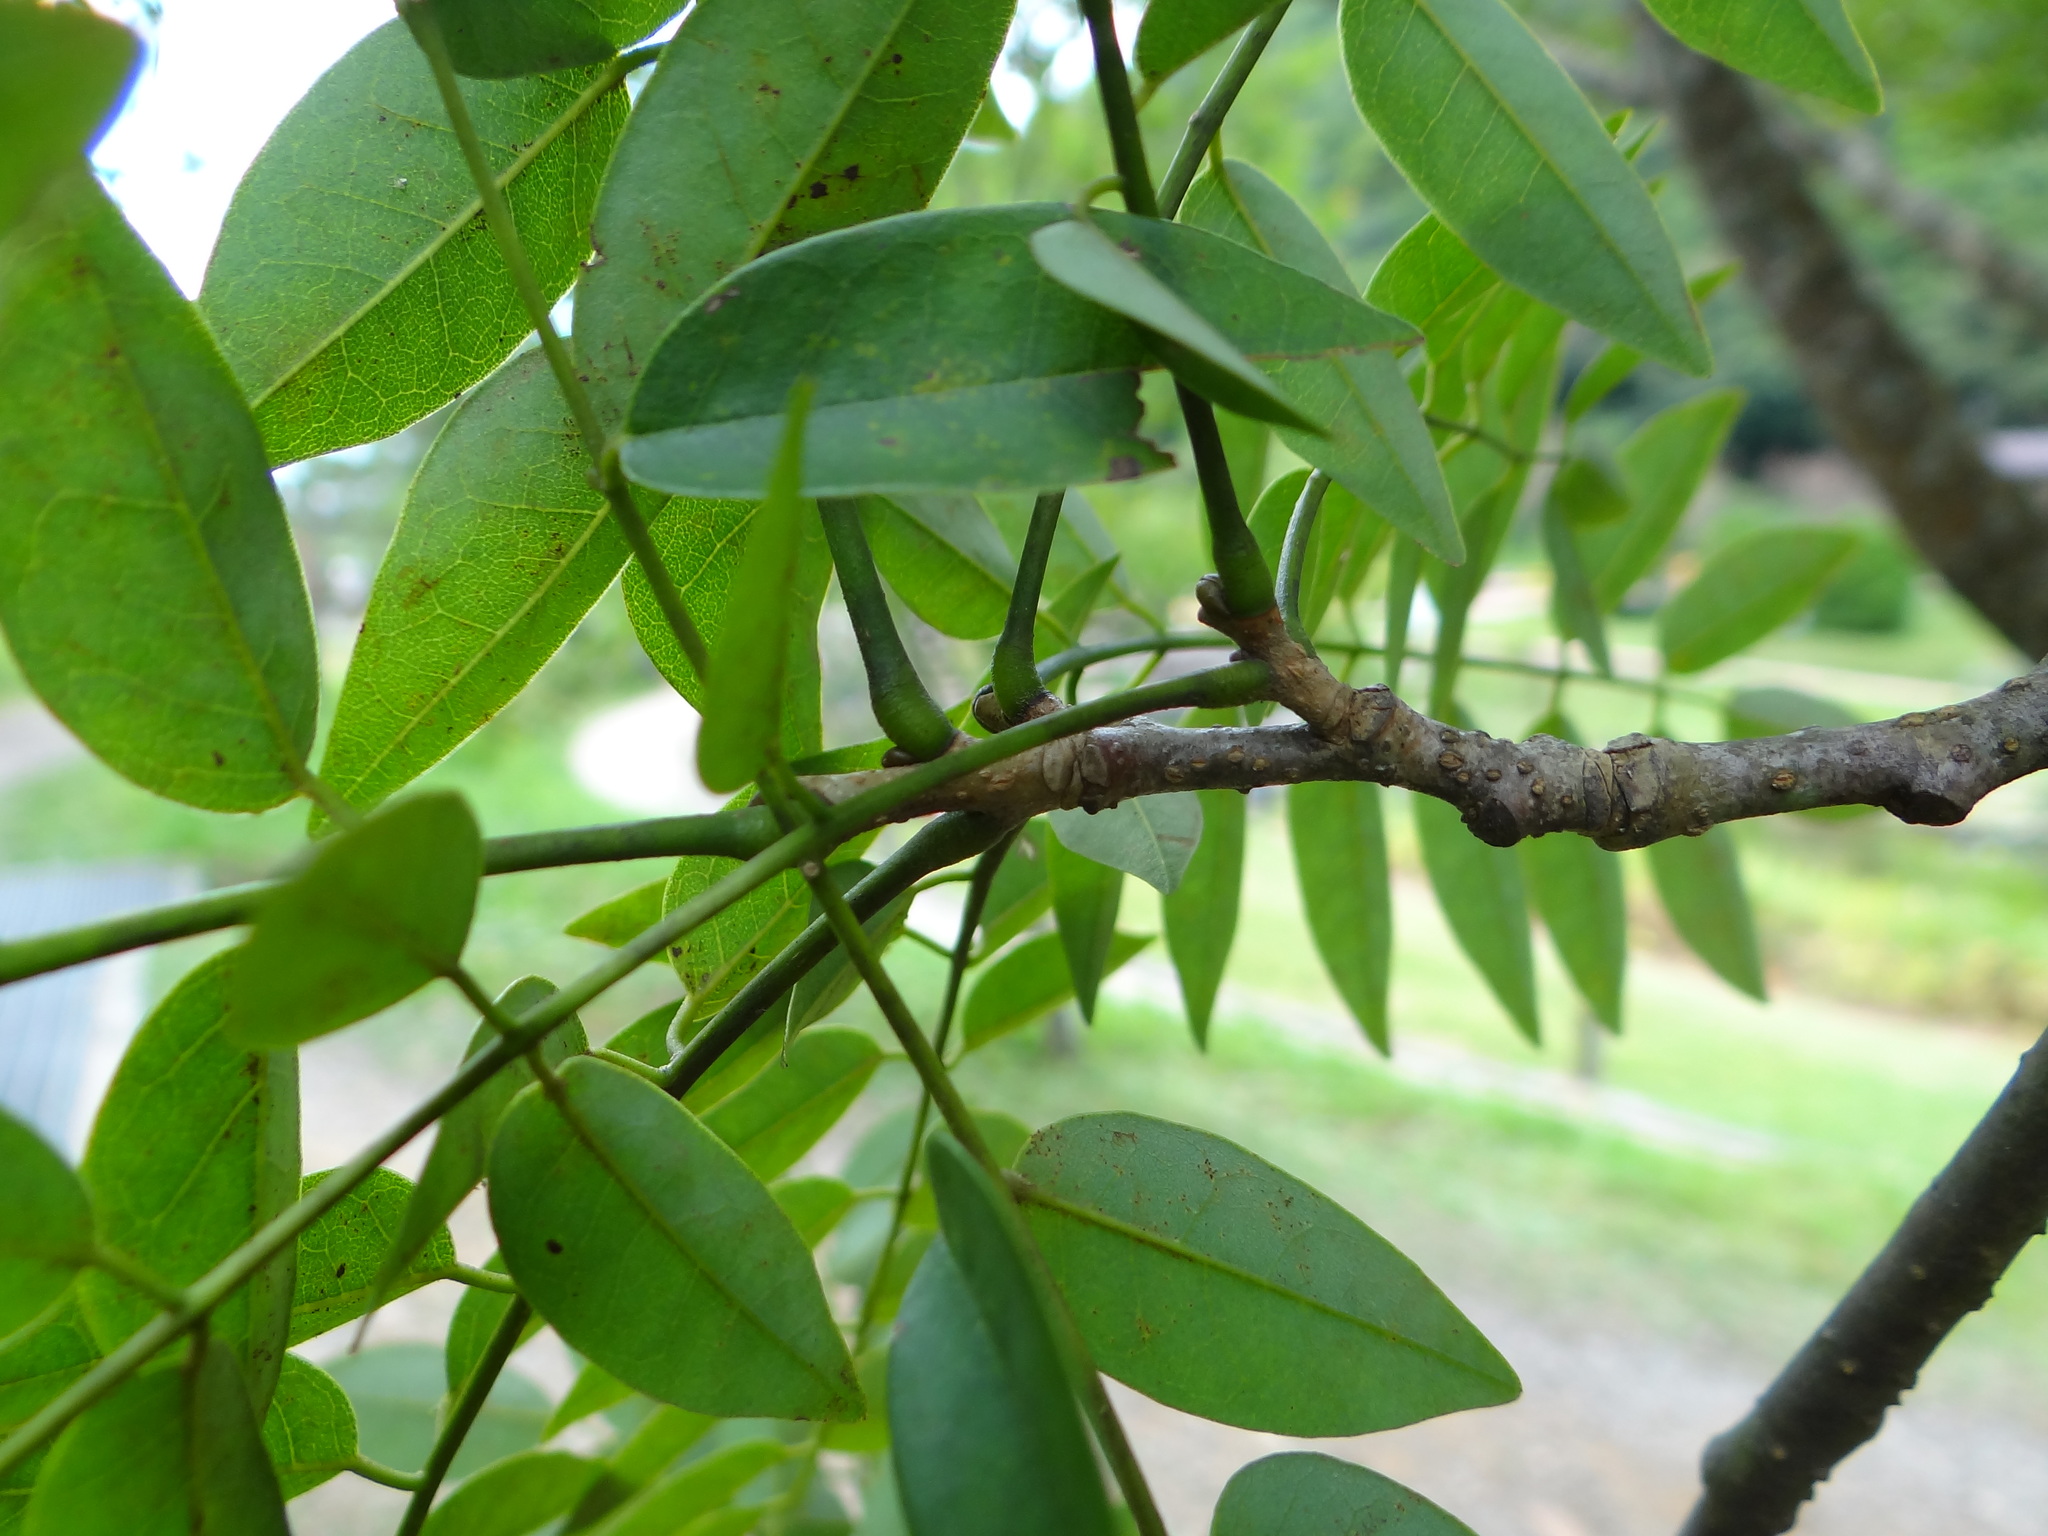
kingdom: Plantae
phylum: Tracheophyta
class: Magnoliopsida
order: Fabales
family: Fabaceae
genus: Maackia
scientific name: Maackia taiwanensis
